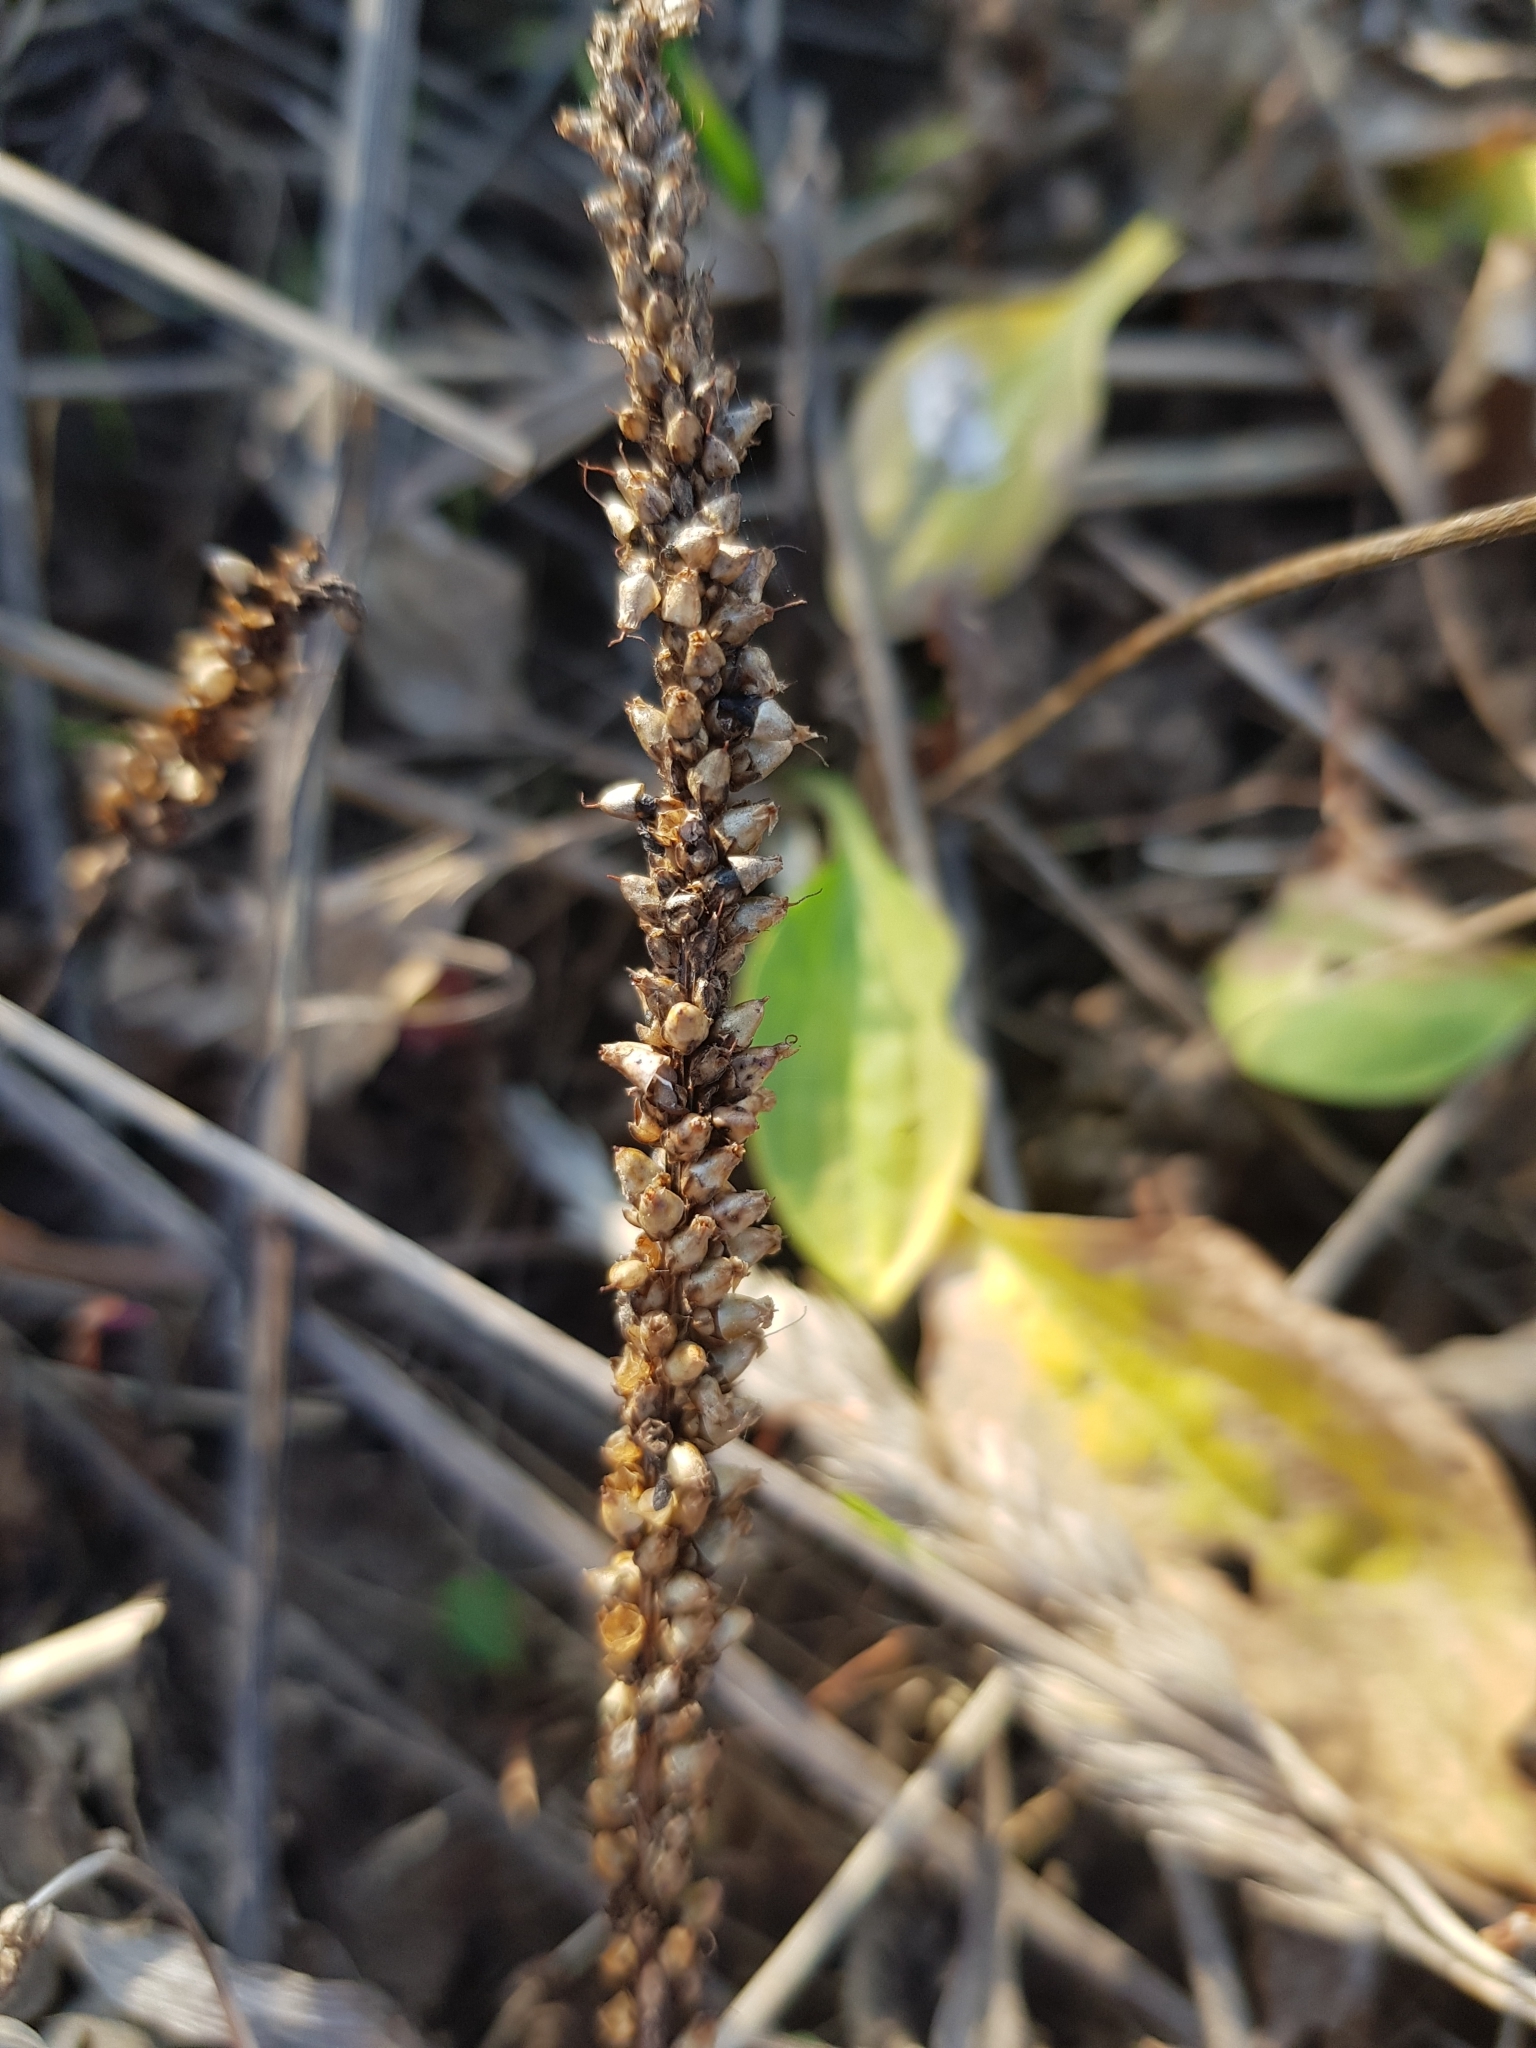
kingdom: Plantae
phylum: Tracheophyta
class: Magnoliopsida
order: Lamiales
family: Plantaginaceae
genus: Plantago
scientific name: Plantago major
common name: Common plantain
